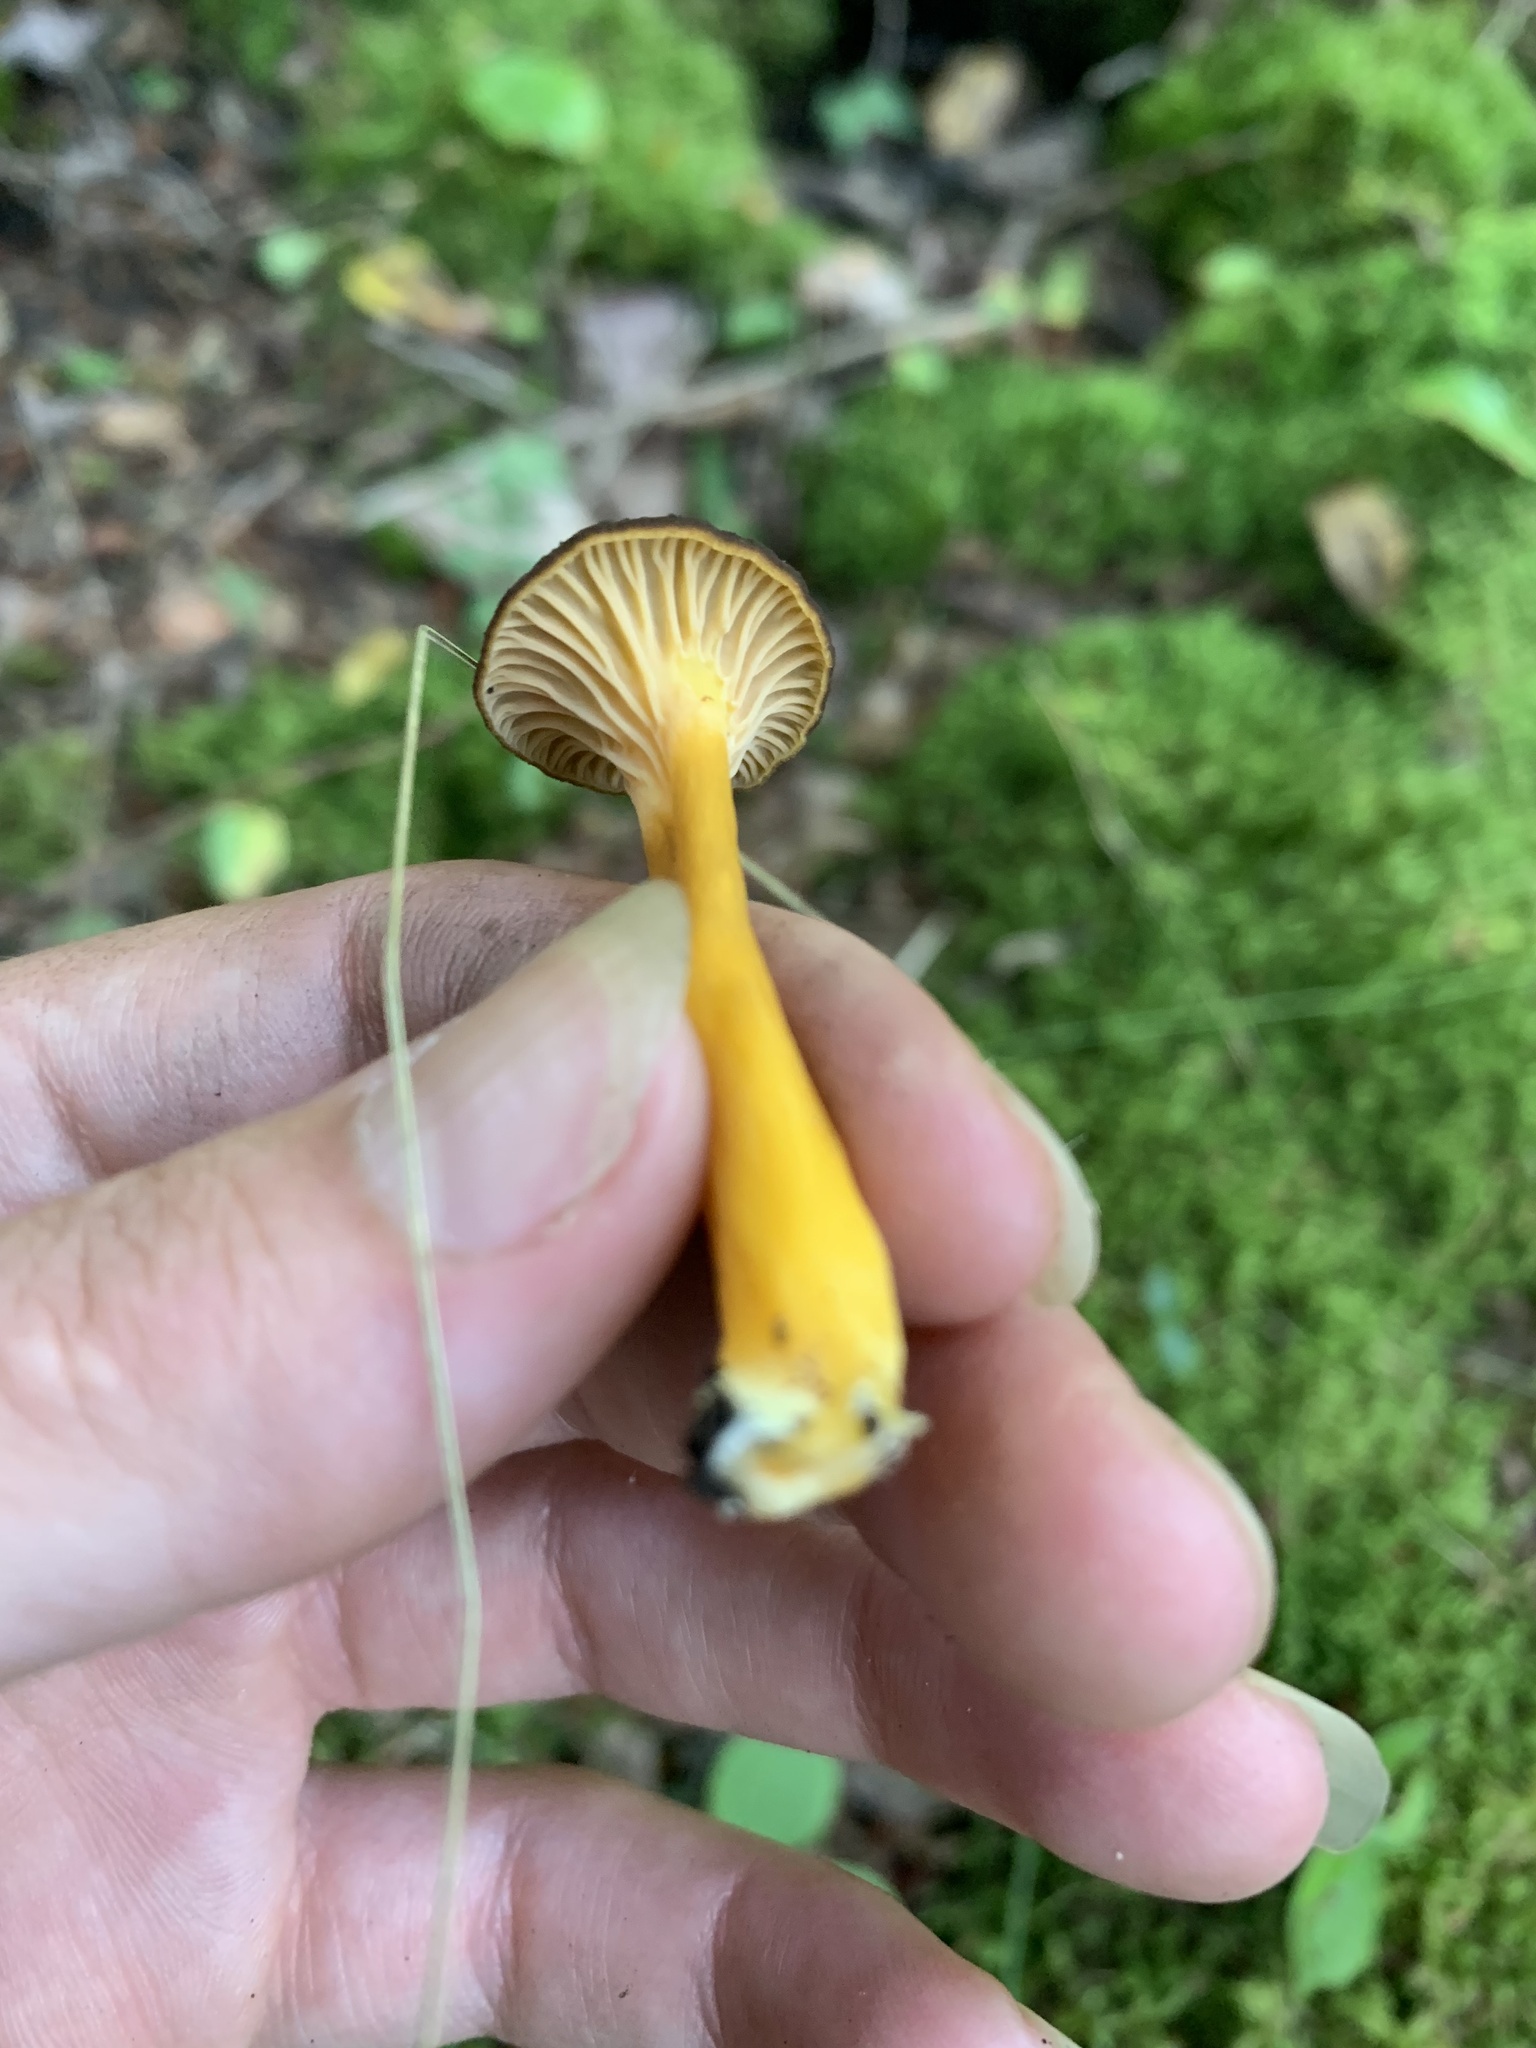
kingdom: Fungi
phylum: Basidiomycota
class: Agaricomycetes
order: Cantharellales
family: Hydnaceae
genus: Craterellus
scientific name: Craterellus tubaeformis
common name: Yellowfoot
